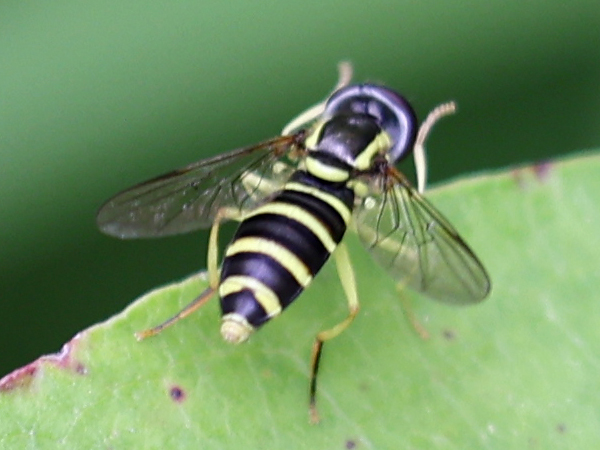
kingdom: Animalia
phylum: Arthropoda
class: Insecta
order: Diptera
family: Syrphidae
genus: Philhelius
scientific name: Philhelius flavipes
